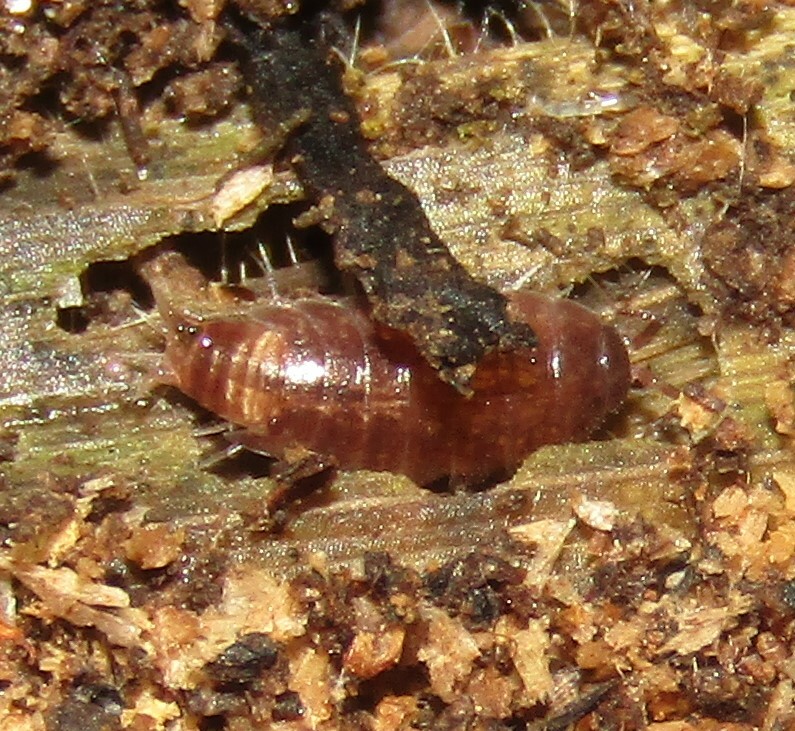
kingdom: Animalia
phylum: Arthropoda
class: Malacostraca
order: Isopoda
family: Trichoniscidae
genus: Hyloniscus
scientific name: Hyloniscus riparius
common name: Isopod
